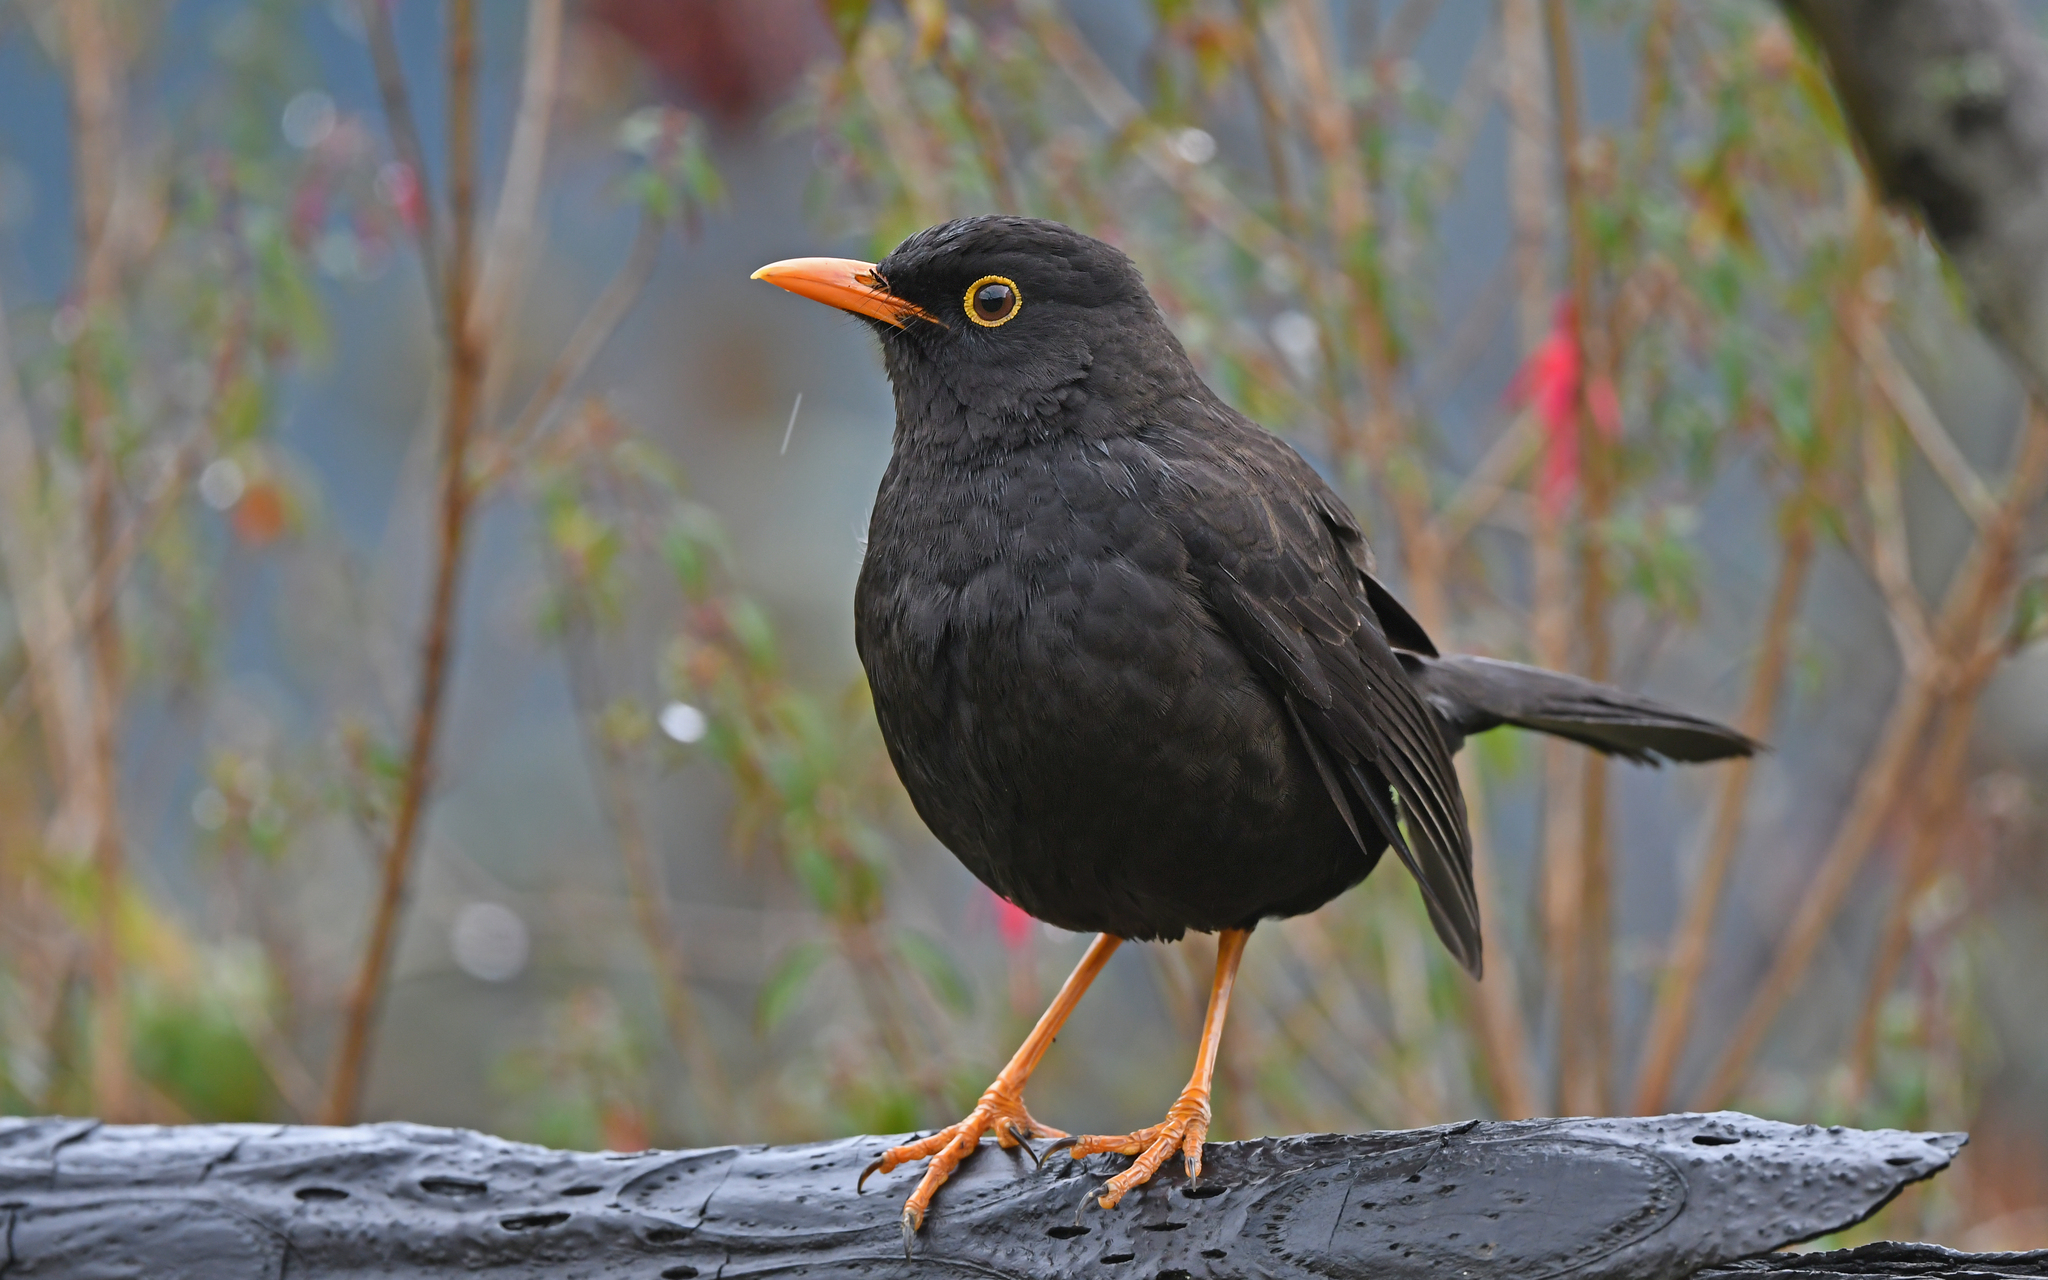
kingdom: Animalia
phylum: Chordata
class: Aves
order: Passeriformes
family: Turdidae
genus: Turdus
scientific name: Turdus fuscater
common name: Great thrush
